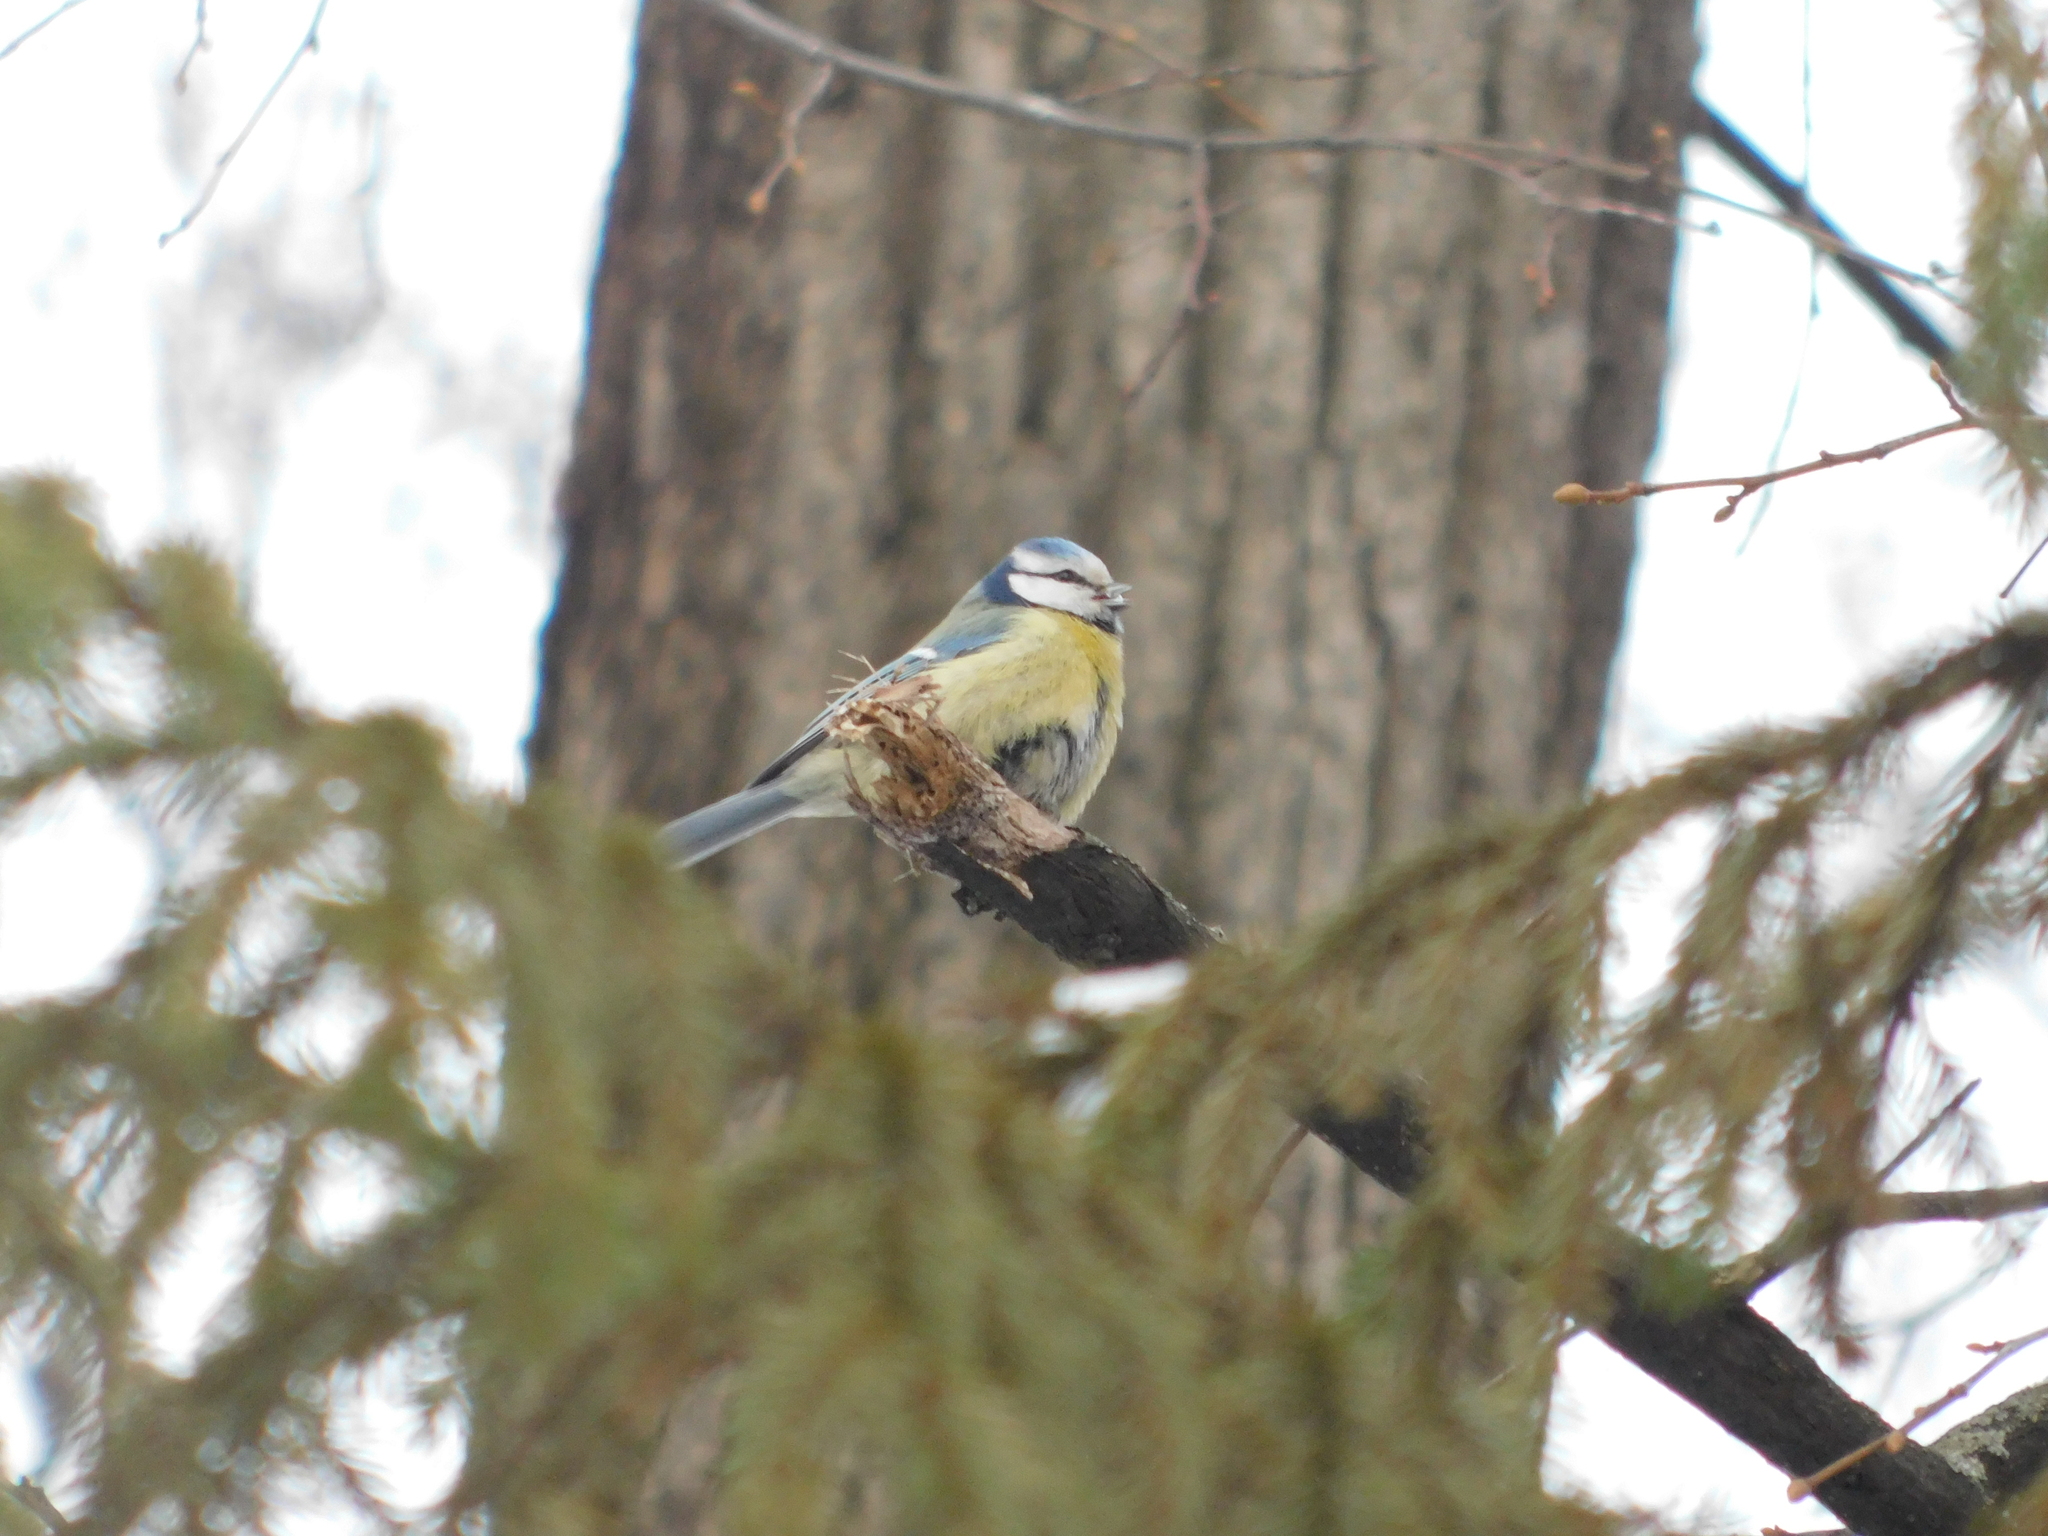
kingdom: Animalia
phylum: Chordata
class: Aves
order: Passeriformes
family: Paridae
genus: Cyanistes
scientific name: Cyanistes caeruleus
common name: Eurasian blue tit
